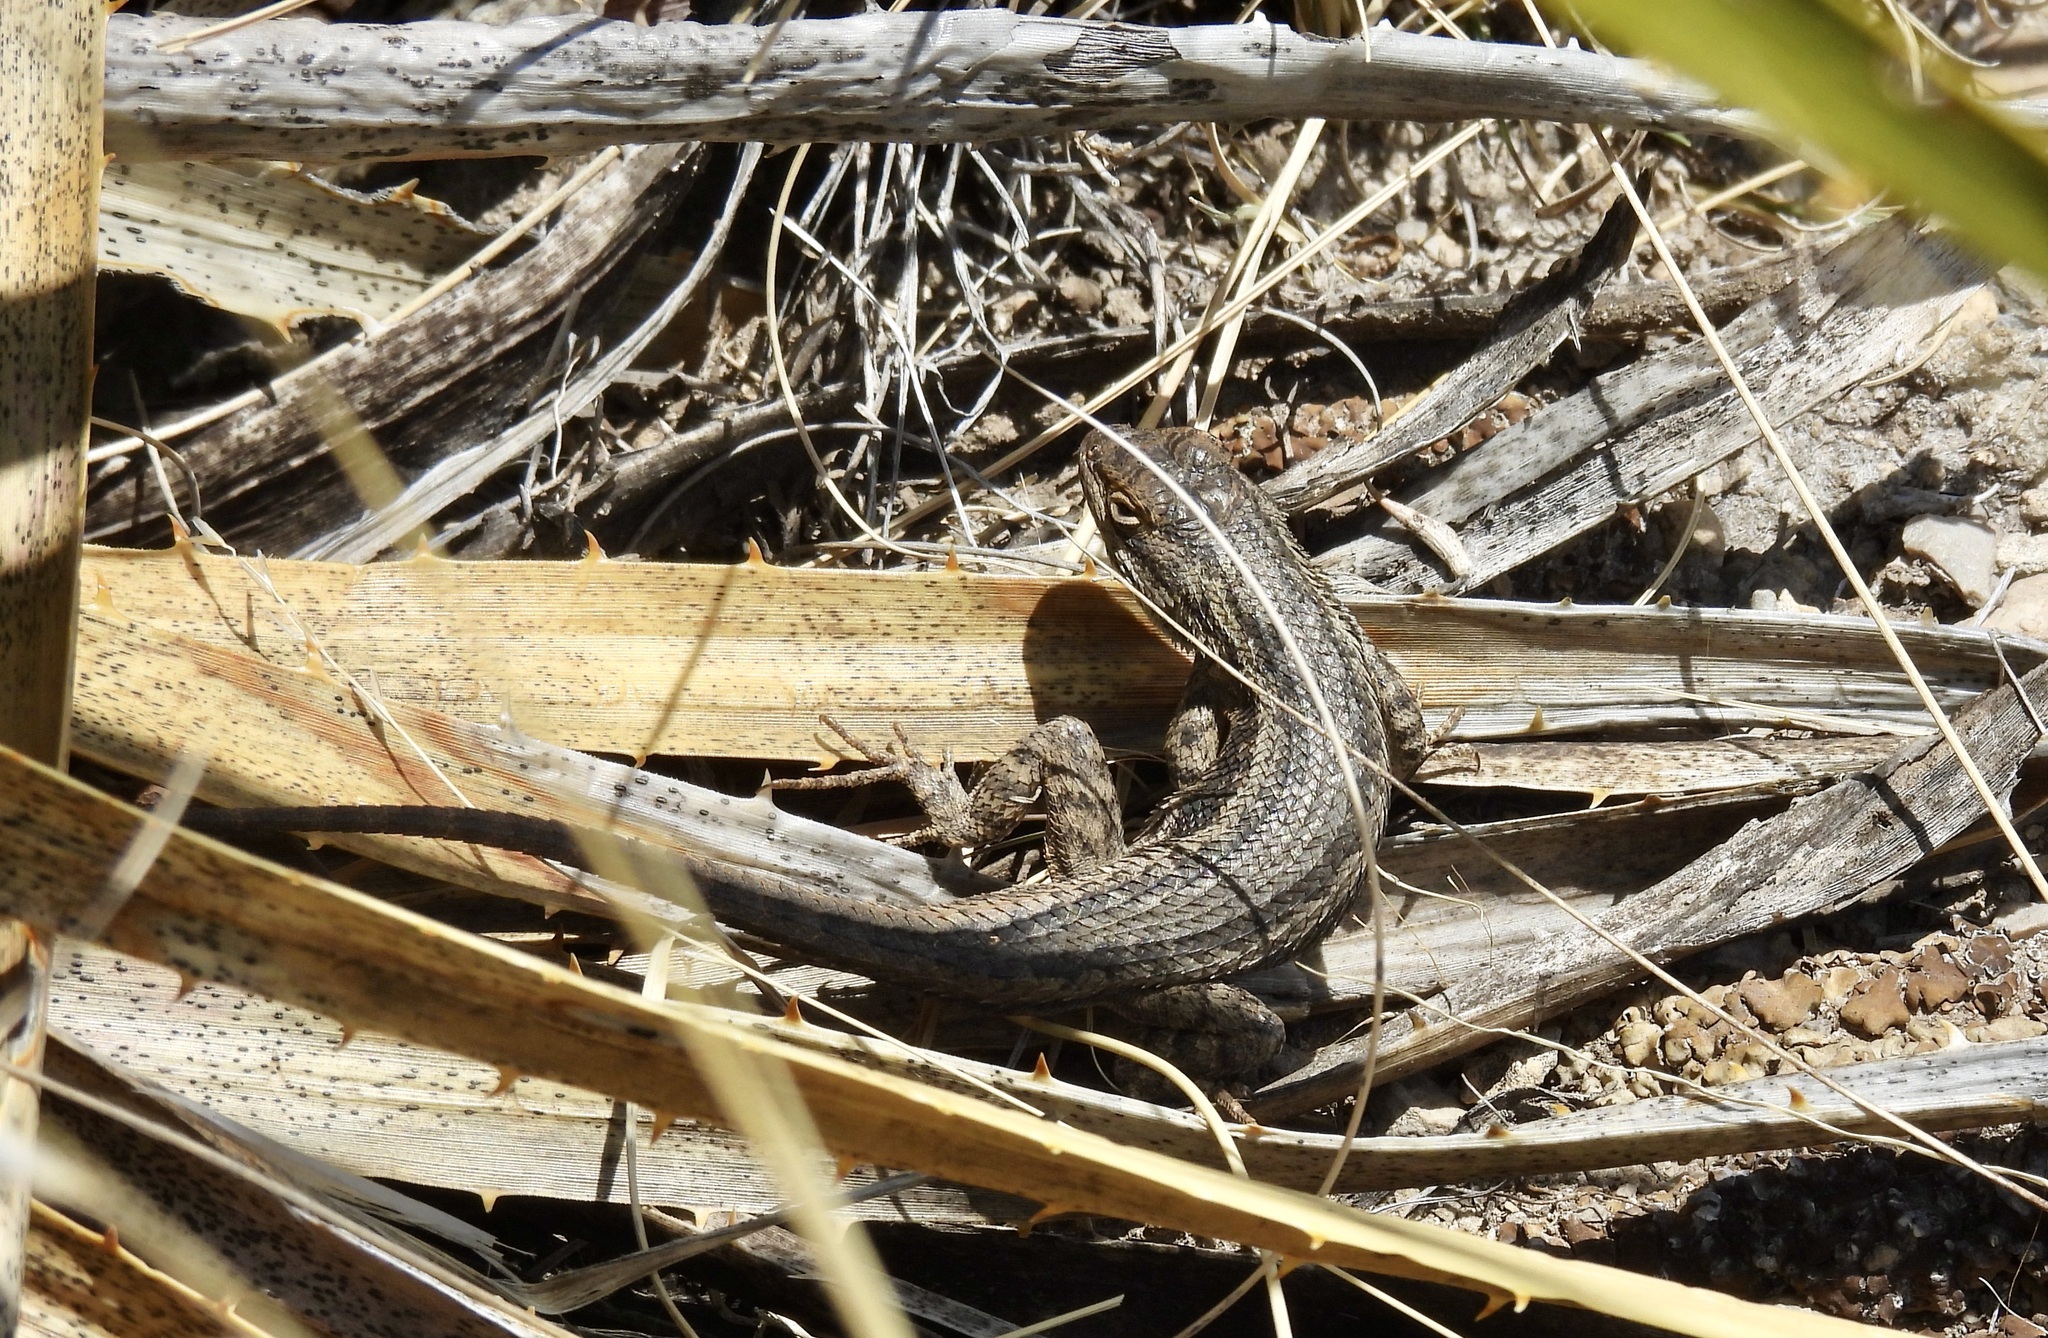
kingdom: Animalia
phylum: Chordata
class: Squamata
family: Phrynosomatidae
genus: Sceloporus
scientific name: Sceloporus cowlesi
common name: White sands prairie lizard
